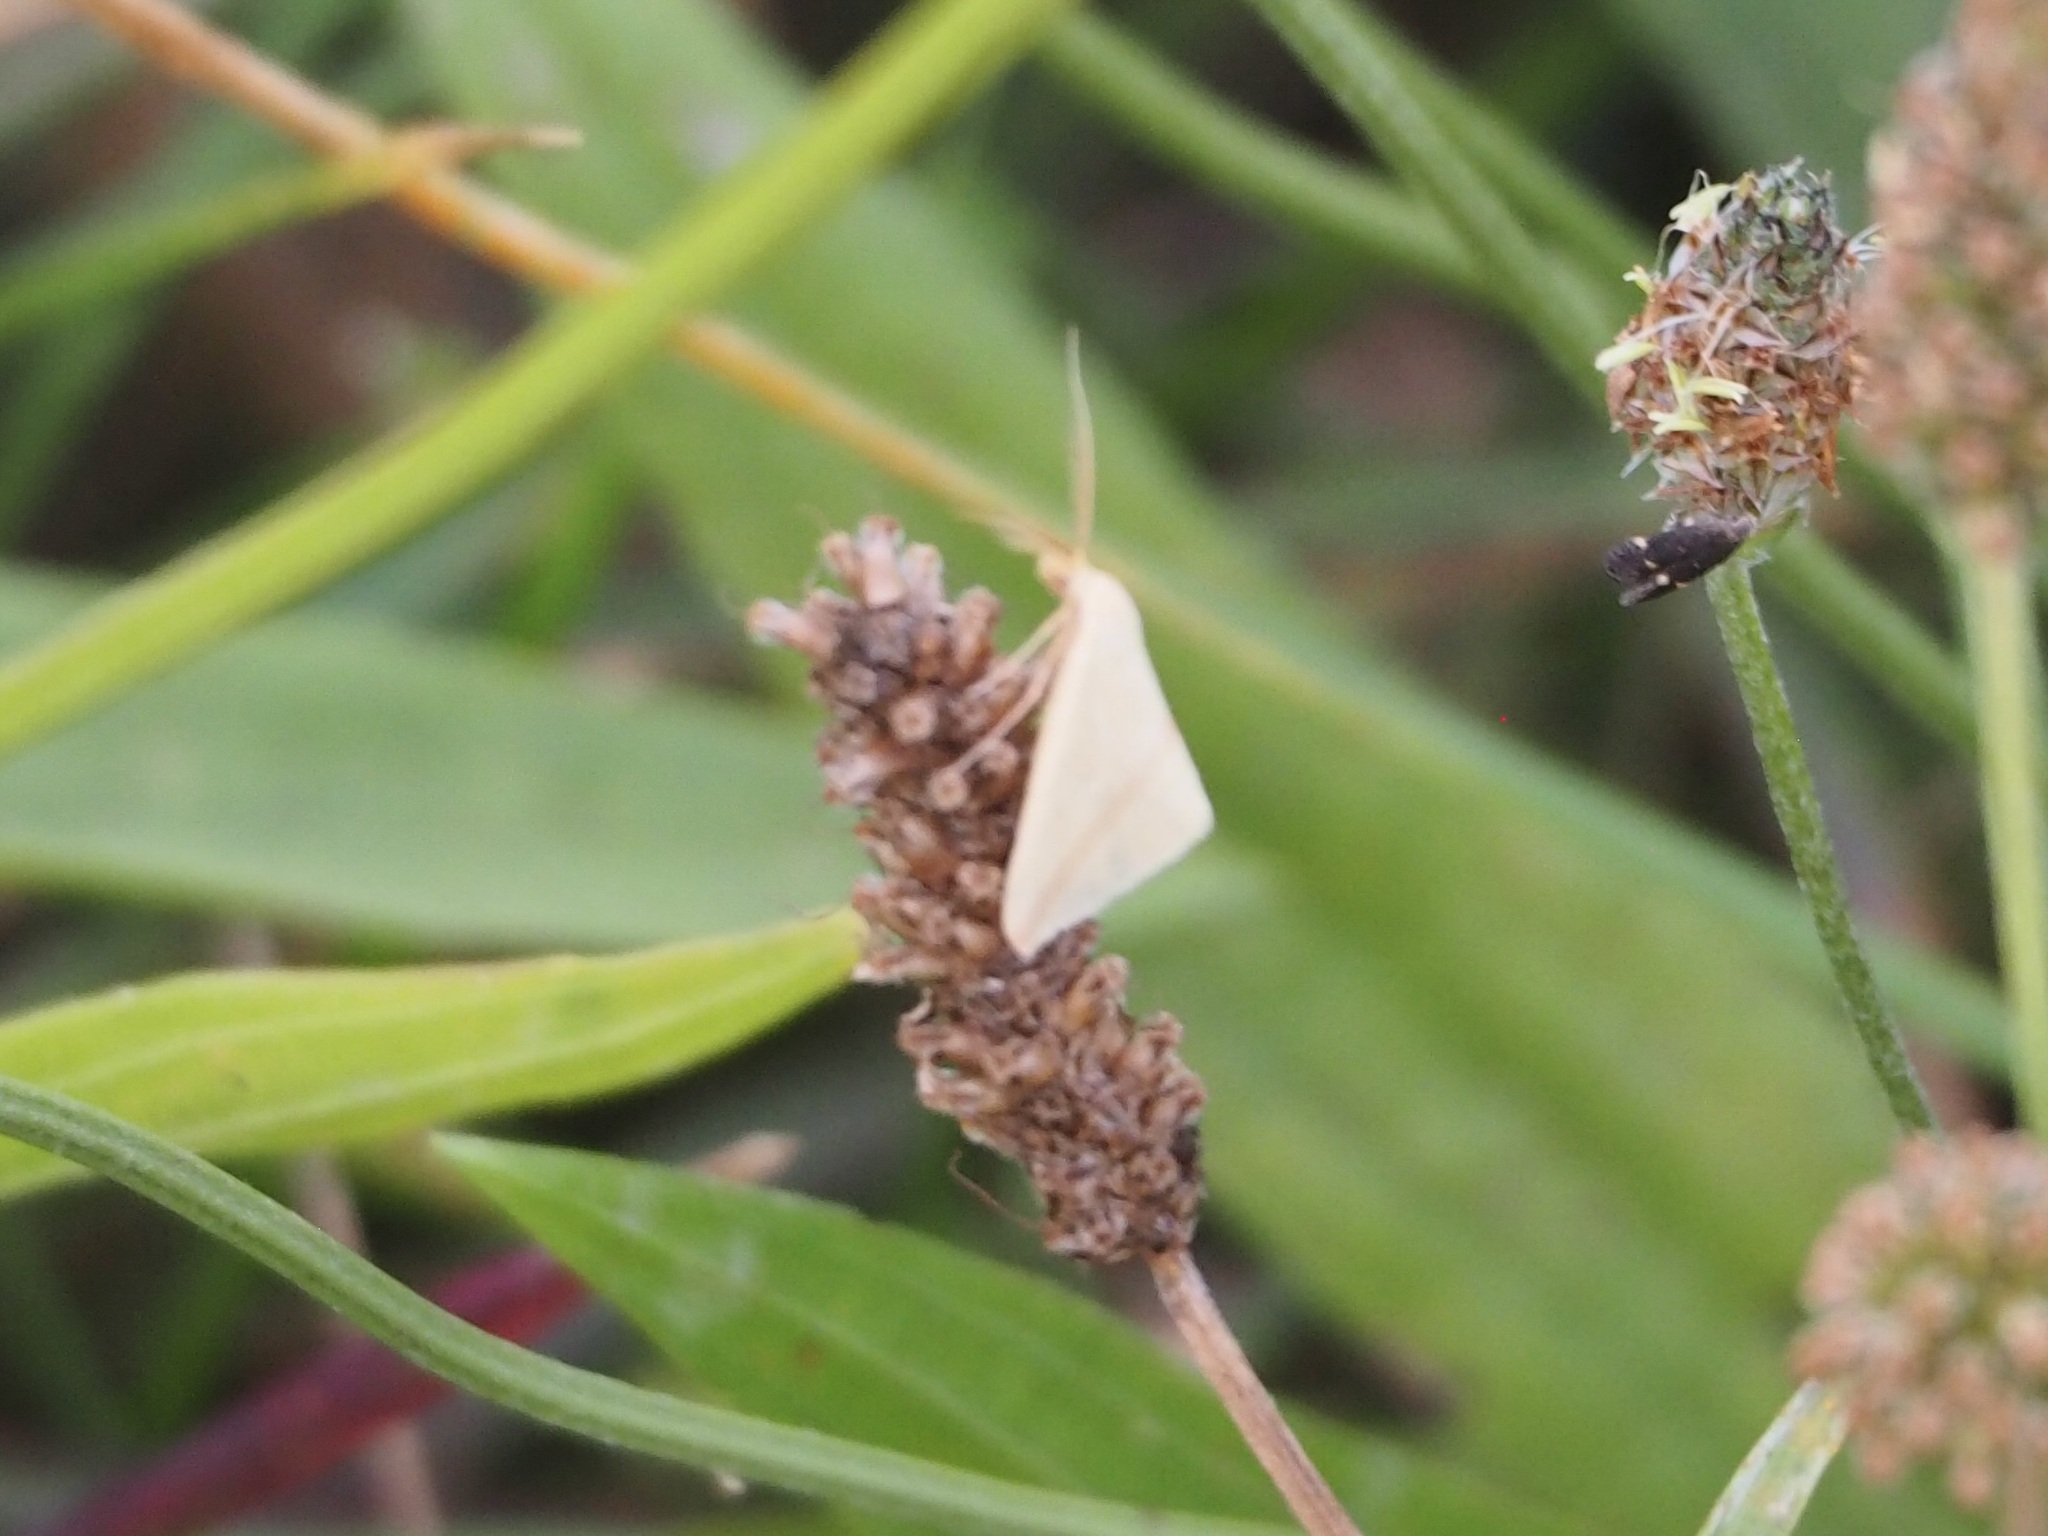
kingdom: Animalia
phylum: Arthropoda
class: Insecta
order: Lepidoptera
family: Geometridae
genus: Rhodometra
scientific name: Rhodometra sacraria
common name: Vestal
